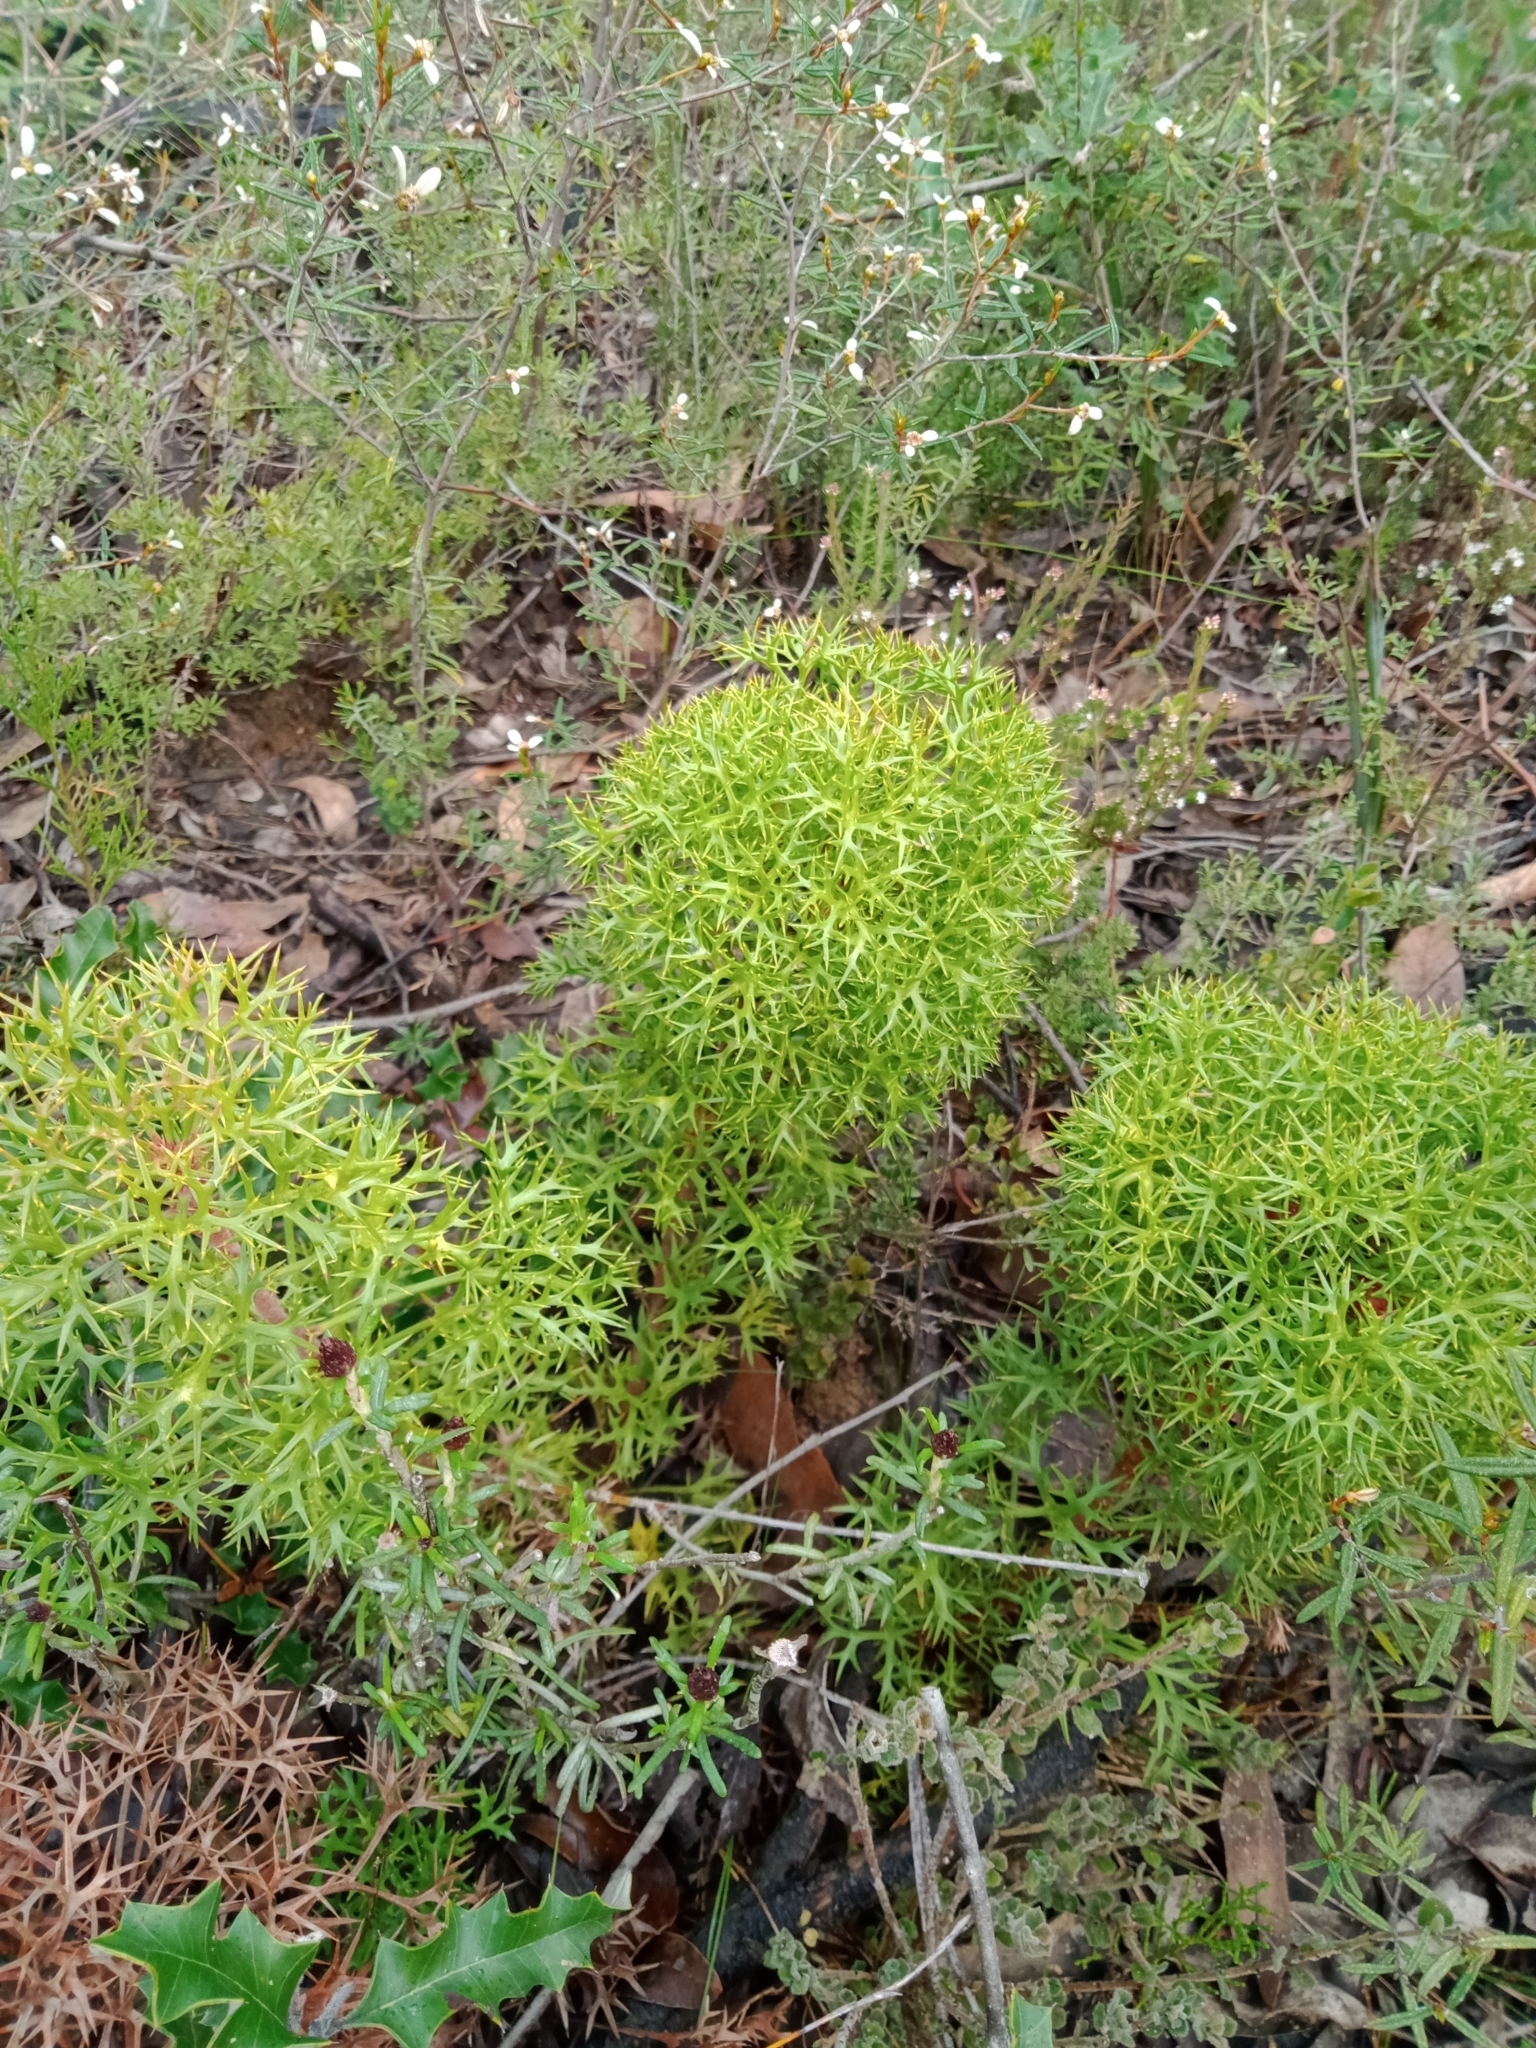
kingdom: Plantae
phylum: Tracheophyta
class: Magnoliopsida
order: Proteales
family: Proteaceae
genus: Isopogon
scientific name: Isopogon ceratophyllus
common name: Horny cone-bush
